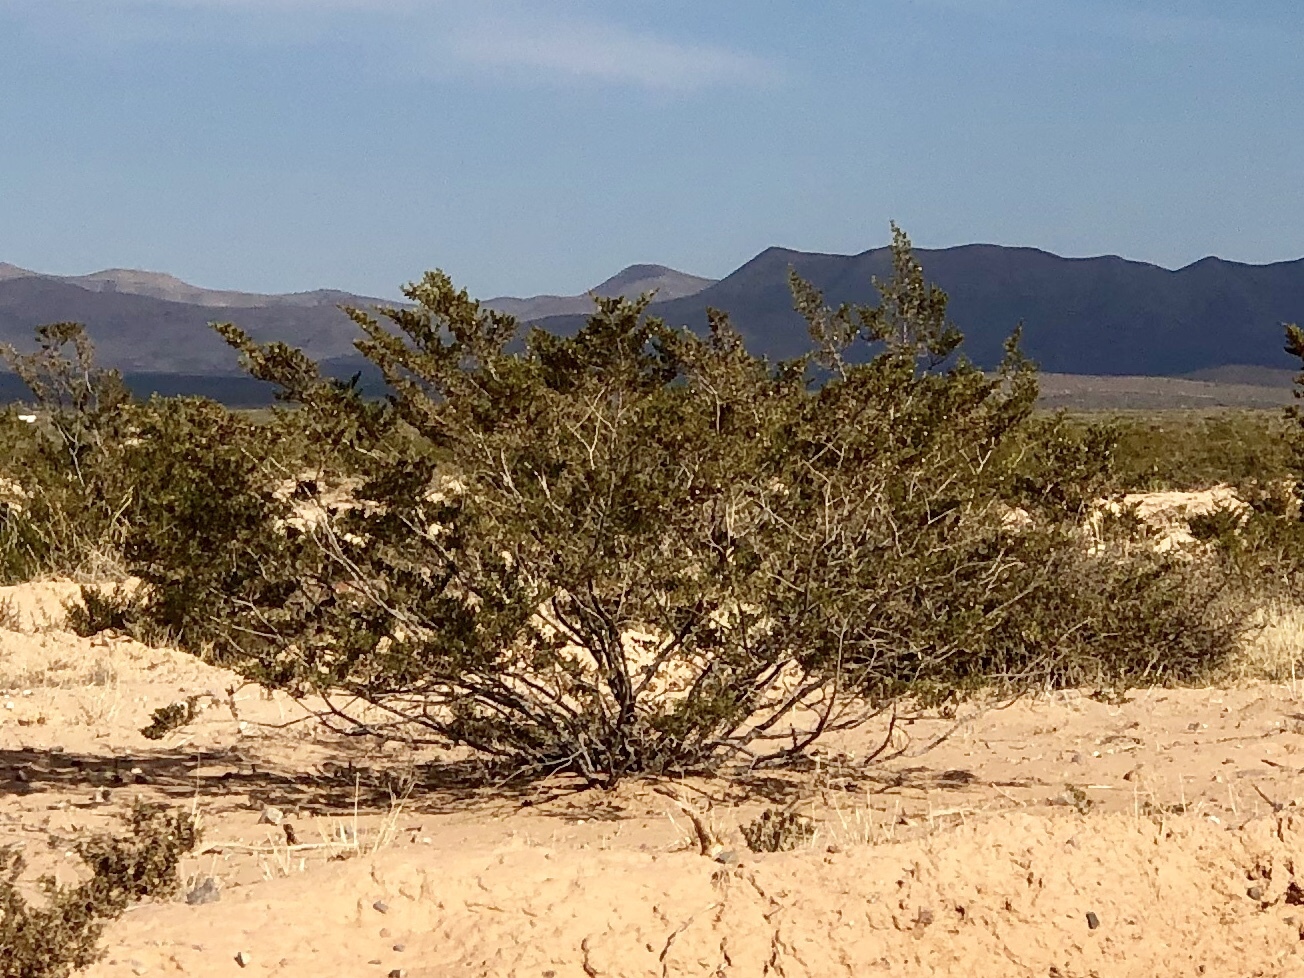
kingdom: Plantae
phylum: Tracheophyta
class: Magnoliopsida
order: Zygophyllales
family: Zygophyllaceae
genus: Larrea
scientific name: Larrea tridentata
